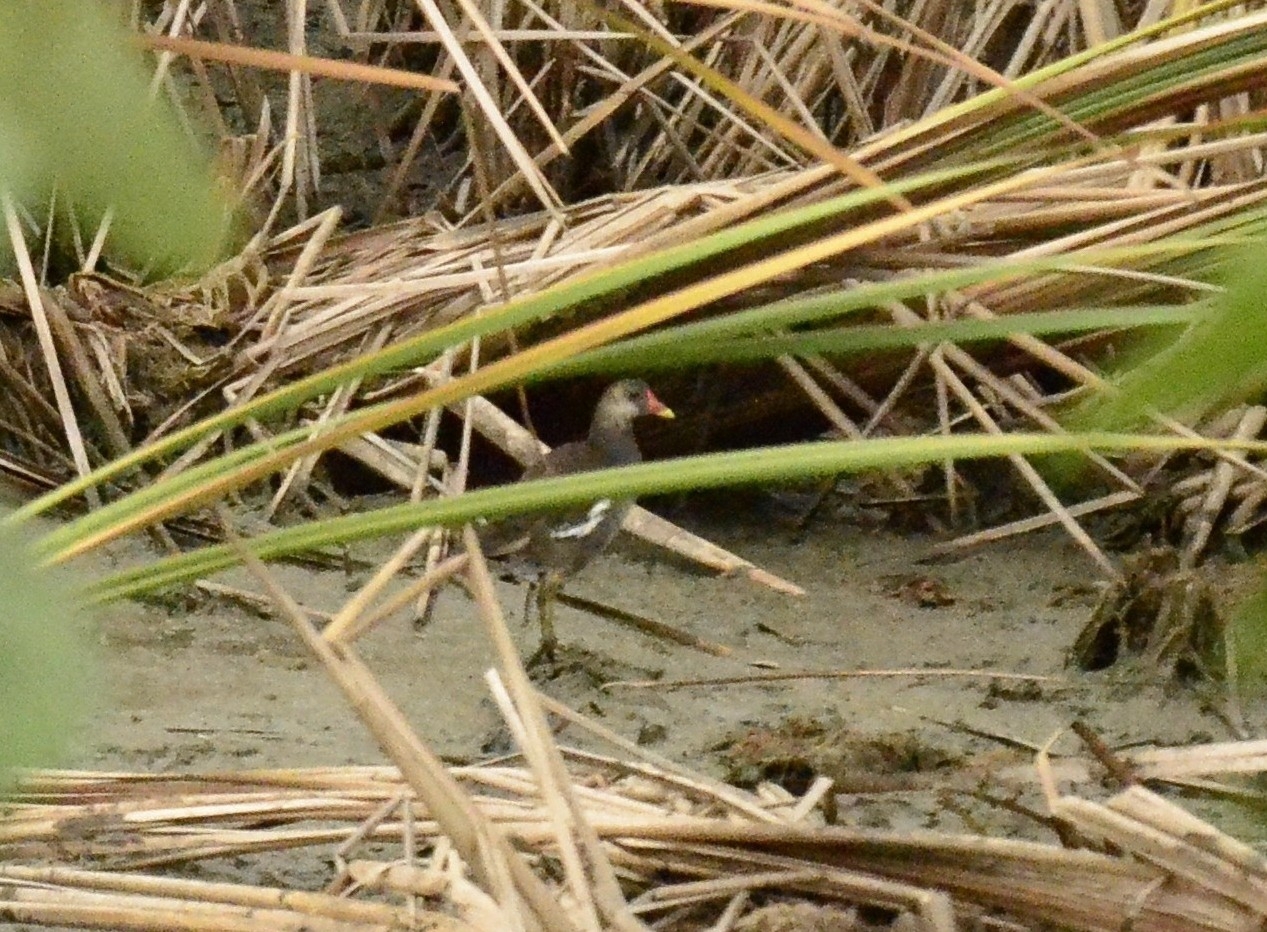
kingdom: Animalia
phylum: Chordata
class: Aves
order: Gruiformes
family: Rallidae
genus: Gallinula
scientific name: Gallinula chloropus
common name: Common moorhen
